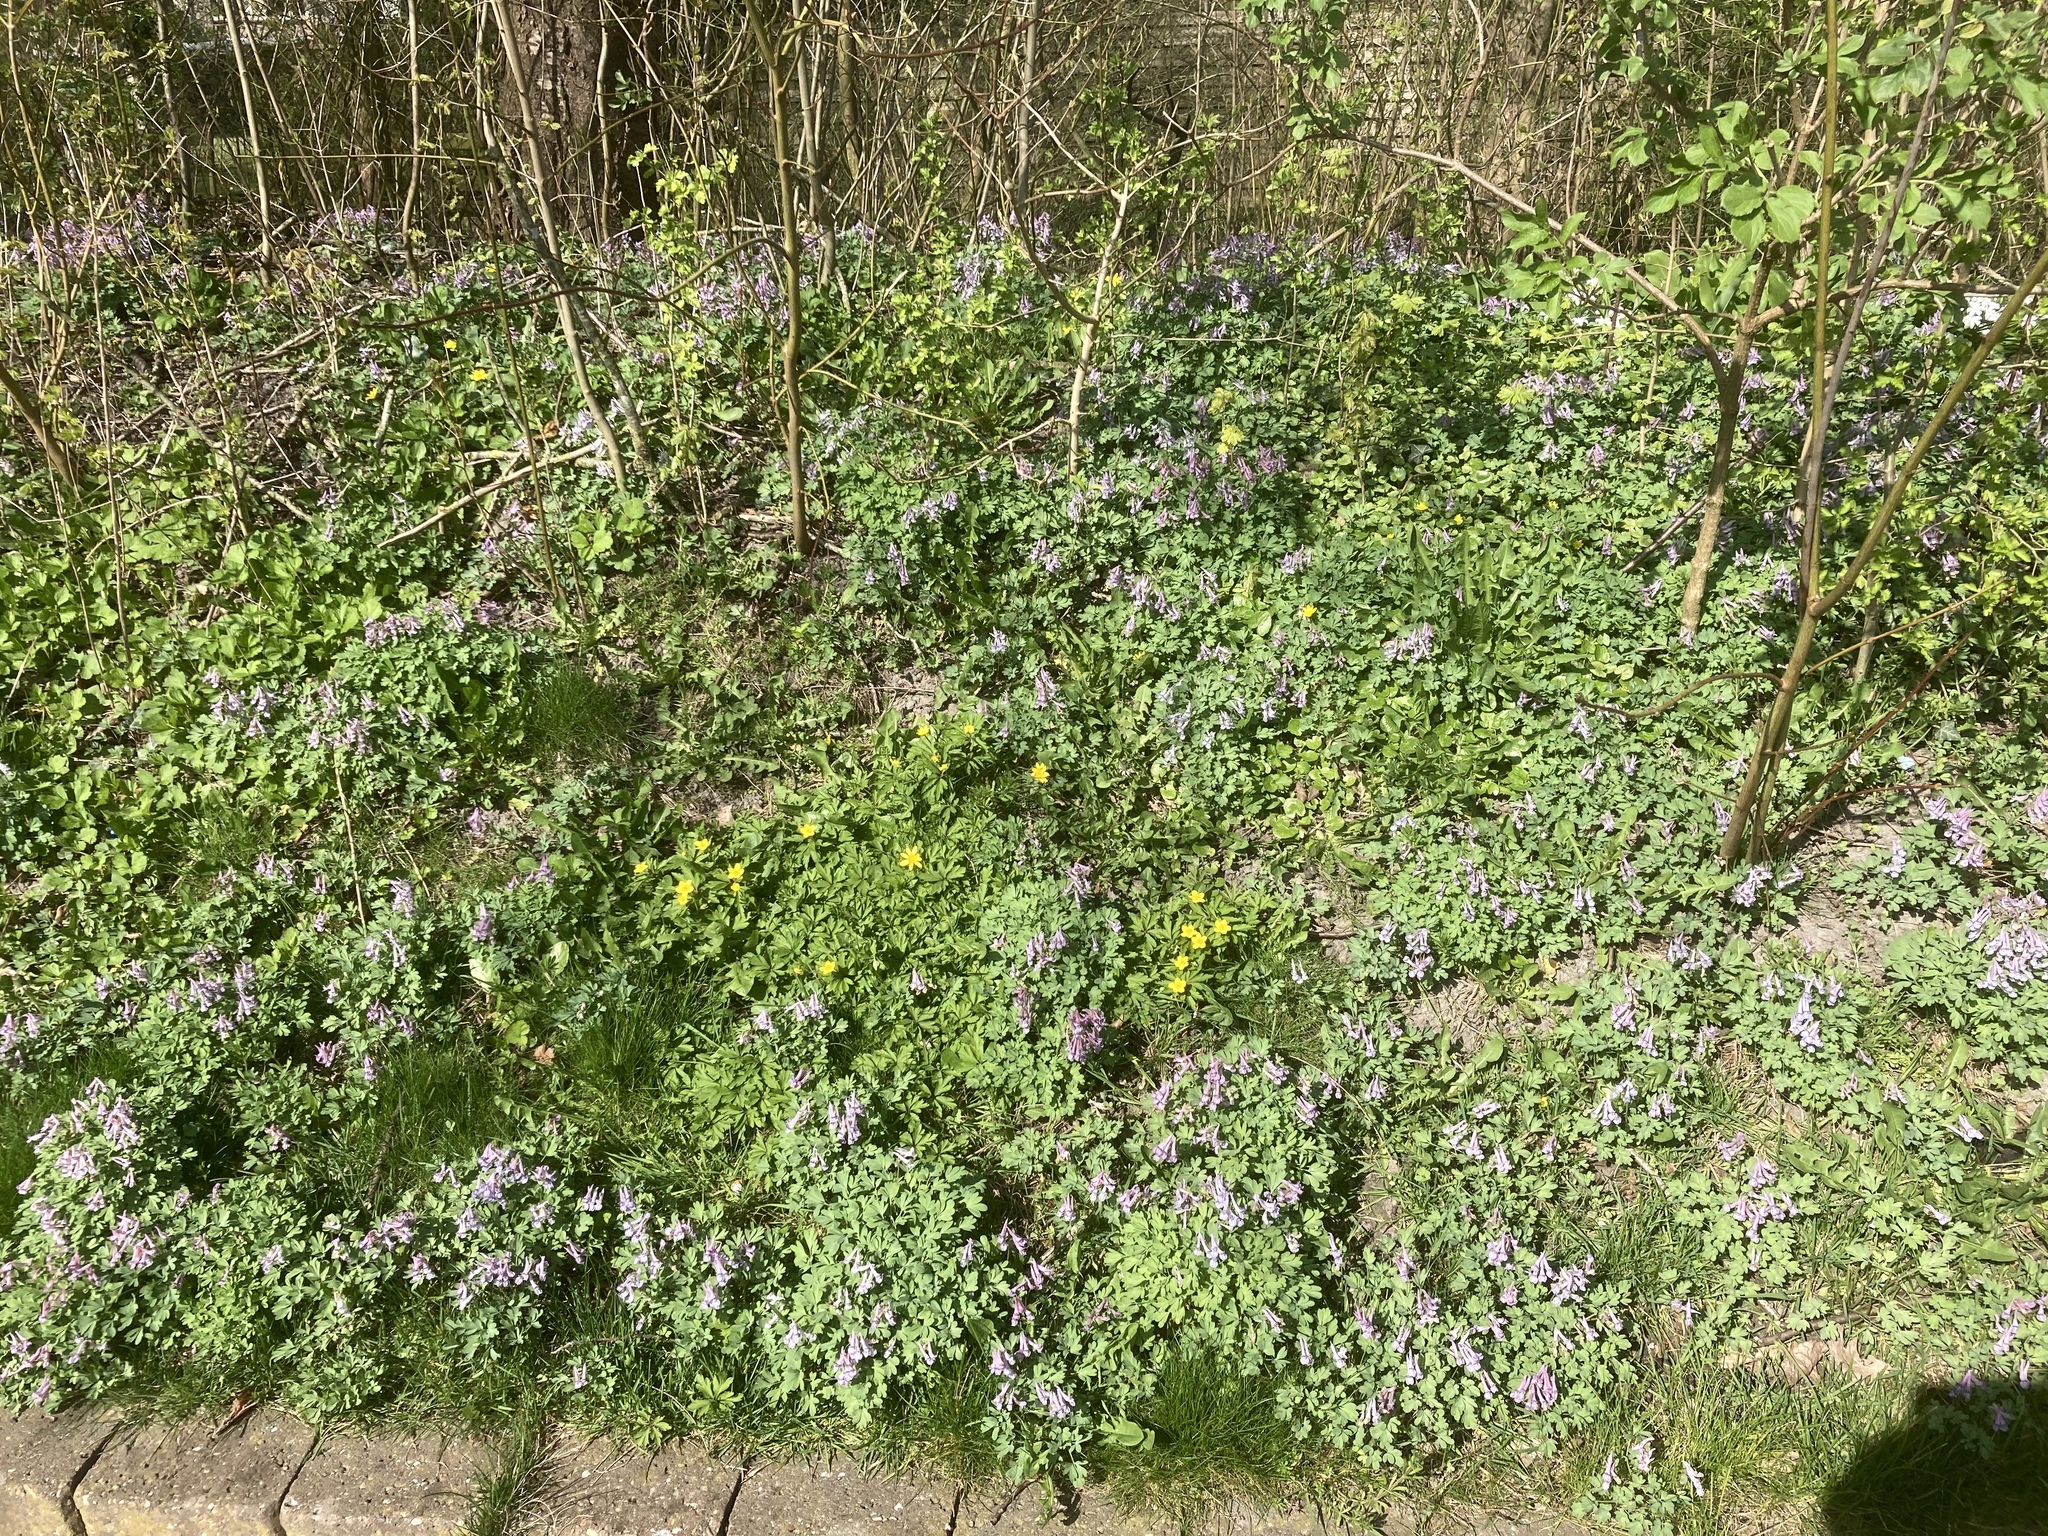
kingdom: Plantae
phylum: Tracheophyta
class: Magnoliopsida
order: Ranunculales
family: Ranunculaceae
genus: Anemone
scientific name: Anemone ranunculoides
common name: Yellow anemone
